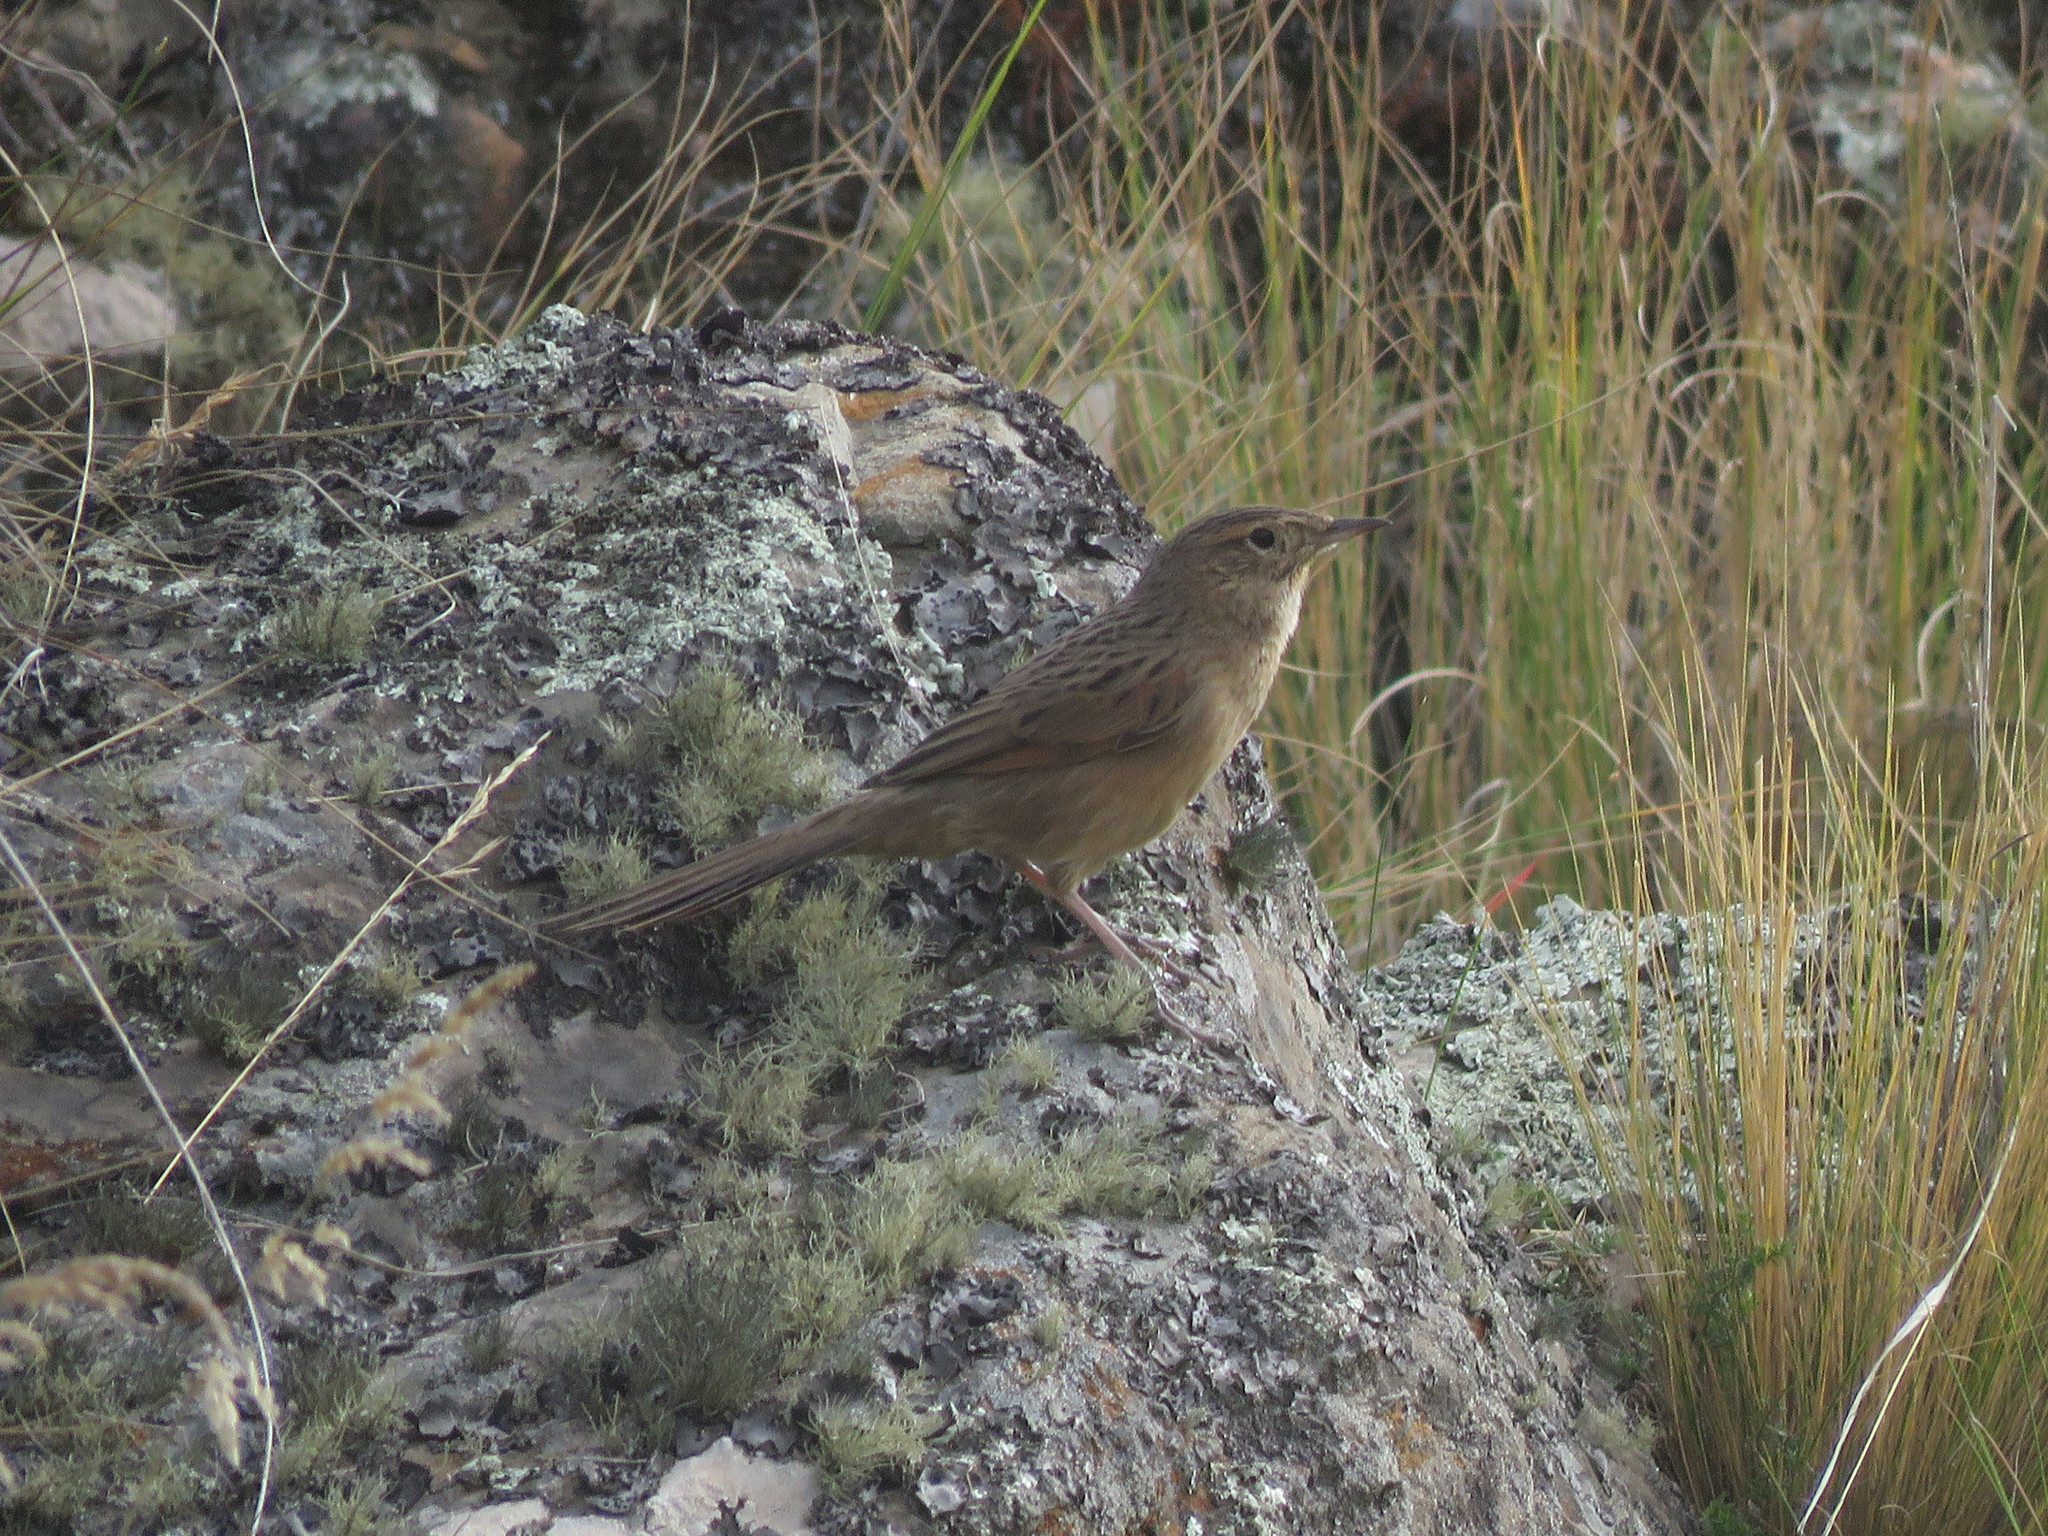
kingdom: Animalia
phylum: Chordata
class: Aves
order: Passeriformes
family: Furnariidae
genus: Asthenes
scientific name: Asthenes wyatti
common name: Streak-backed canastero
